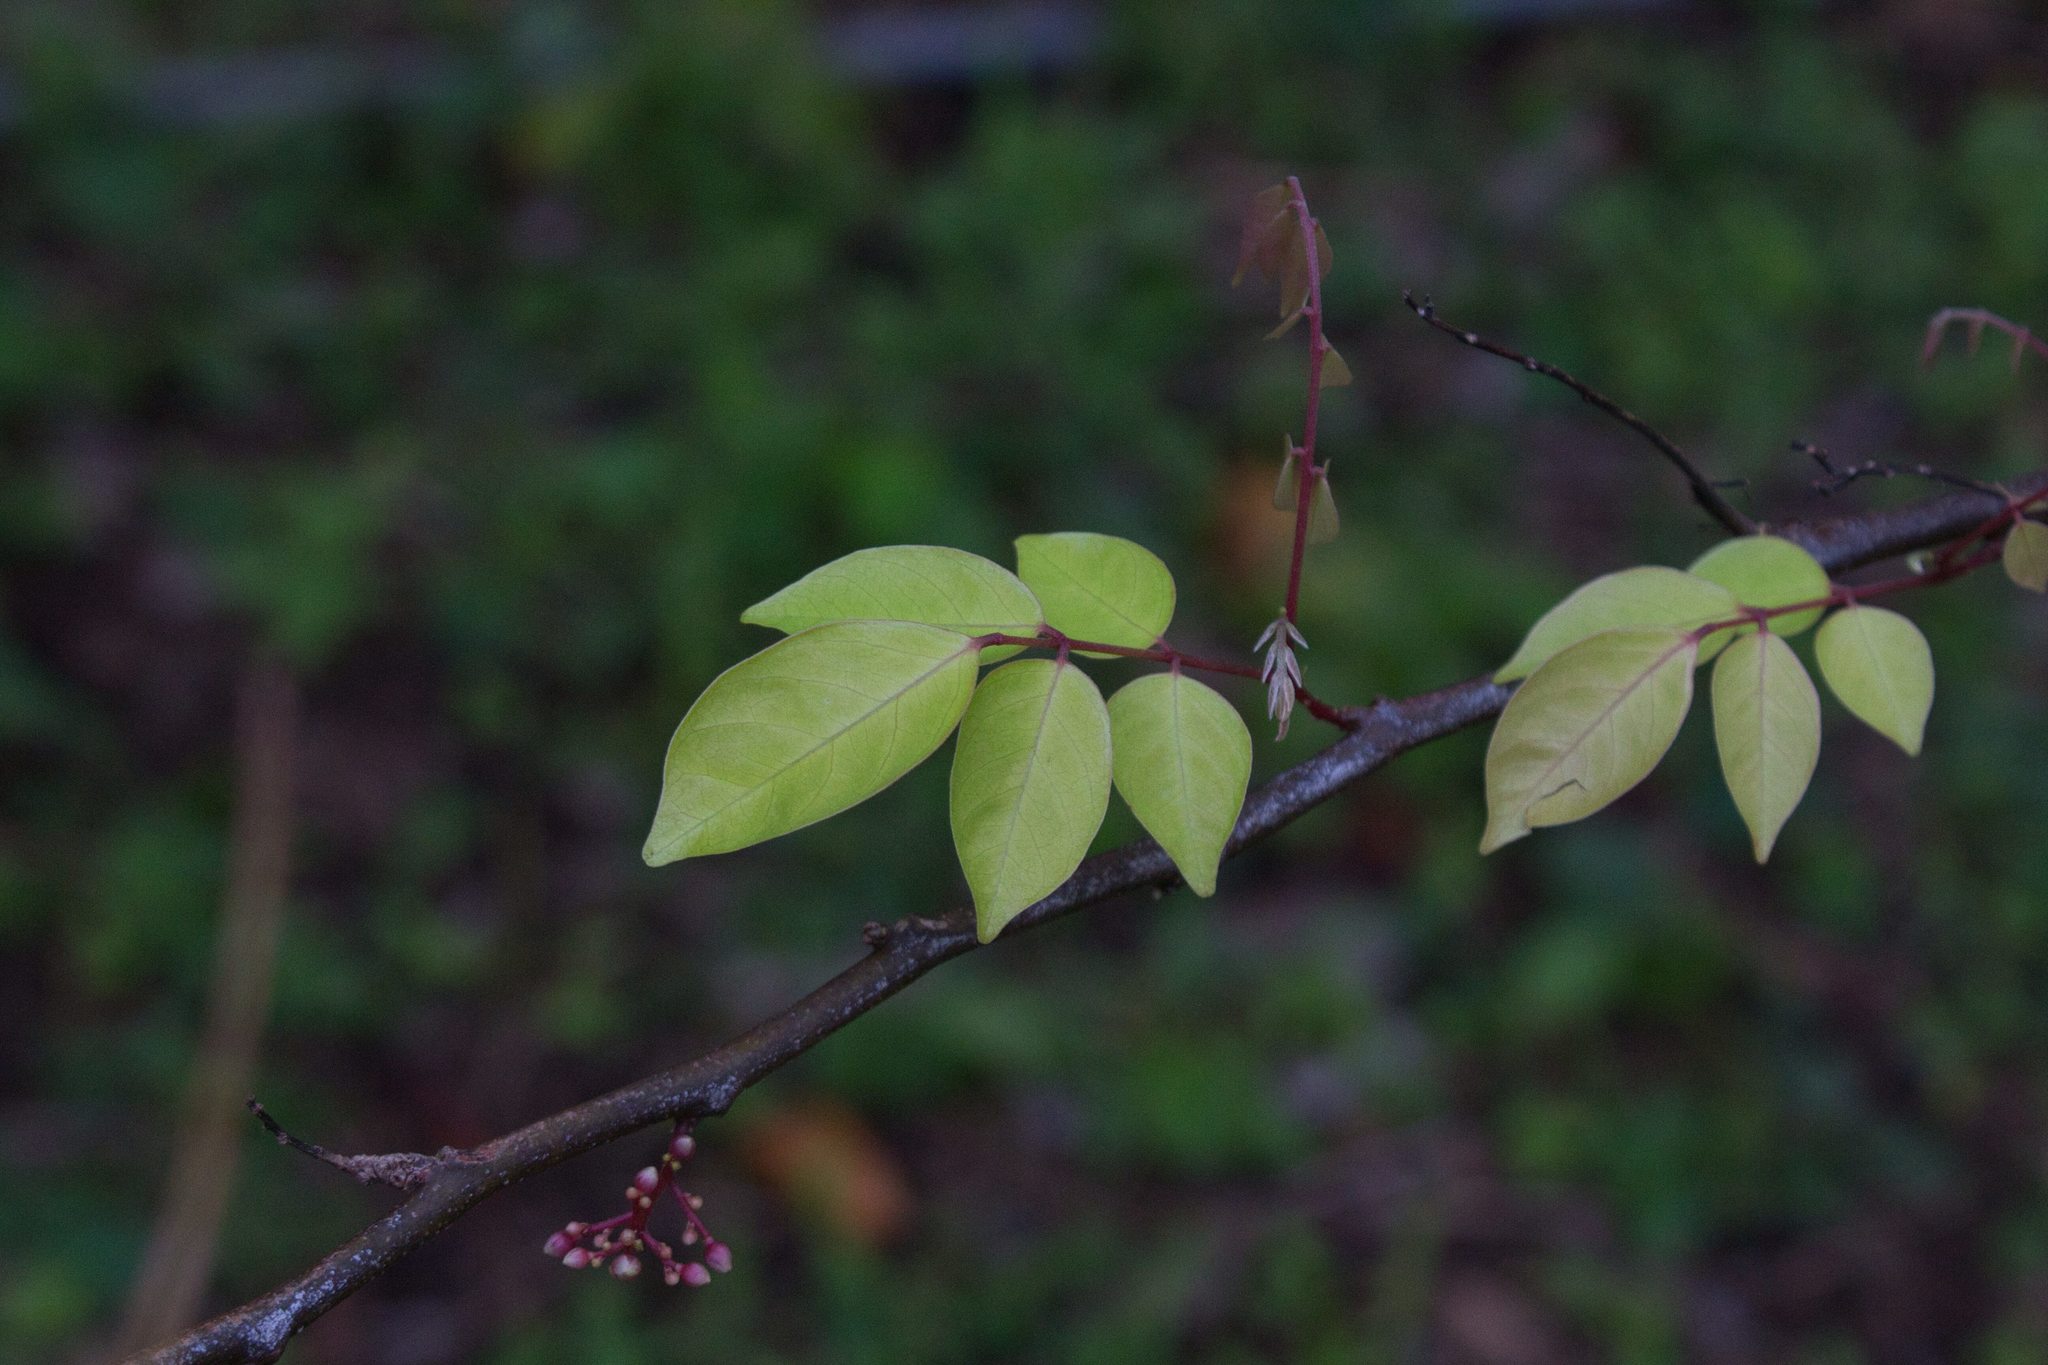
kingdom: Plantae
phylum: Tracheophyta
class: Magnoliopsida
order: Oxalidales
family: Oxalidaceae
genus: Averrhoa
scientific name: Averrhoa carambola
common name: Blimbing
